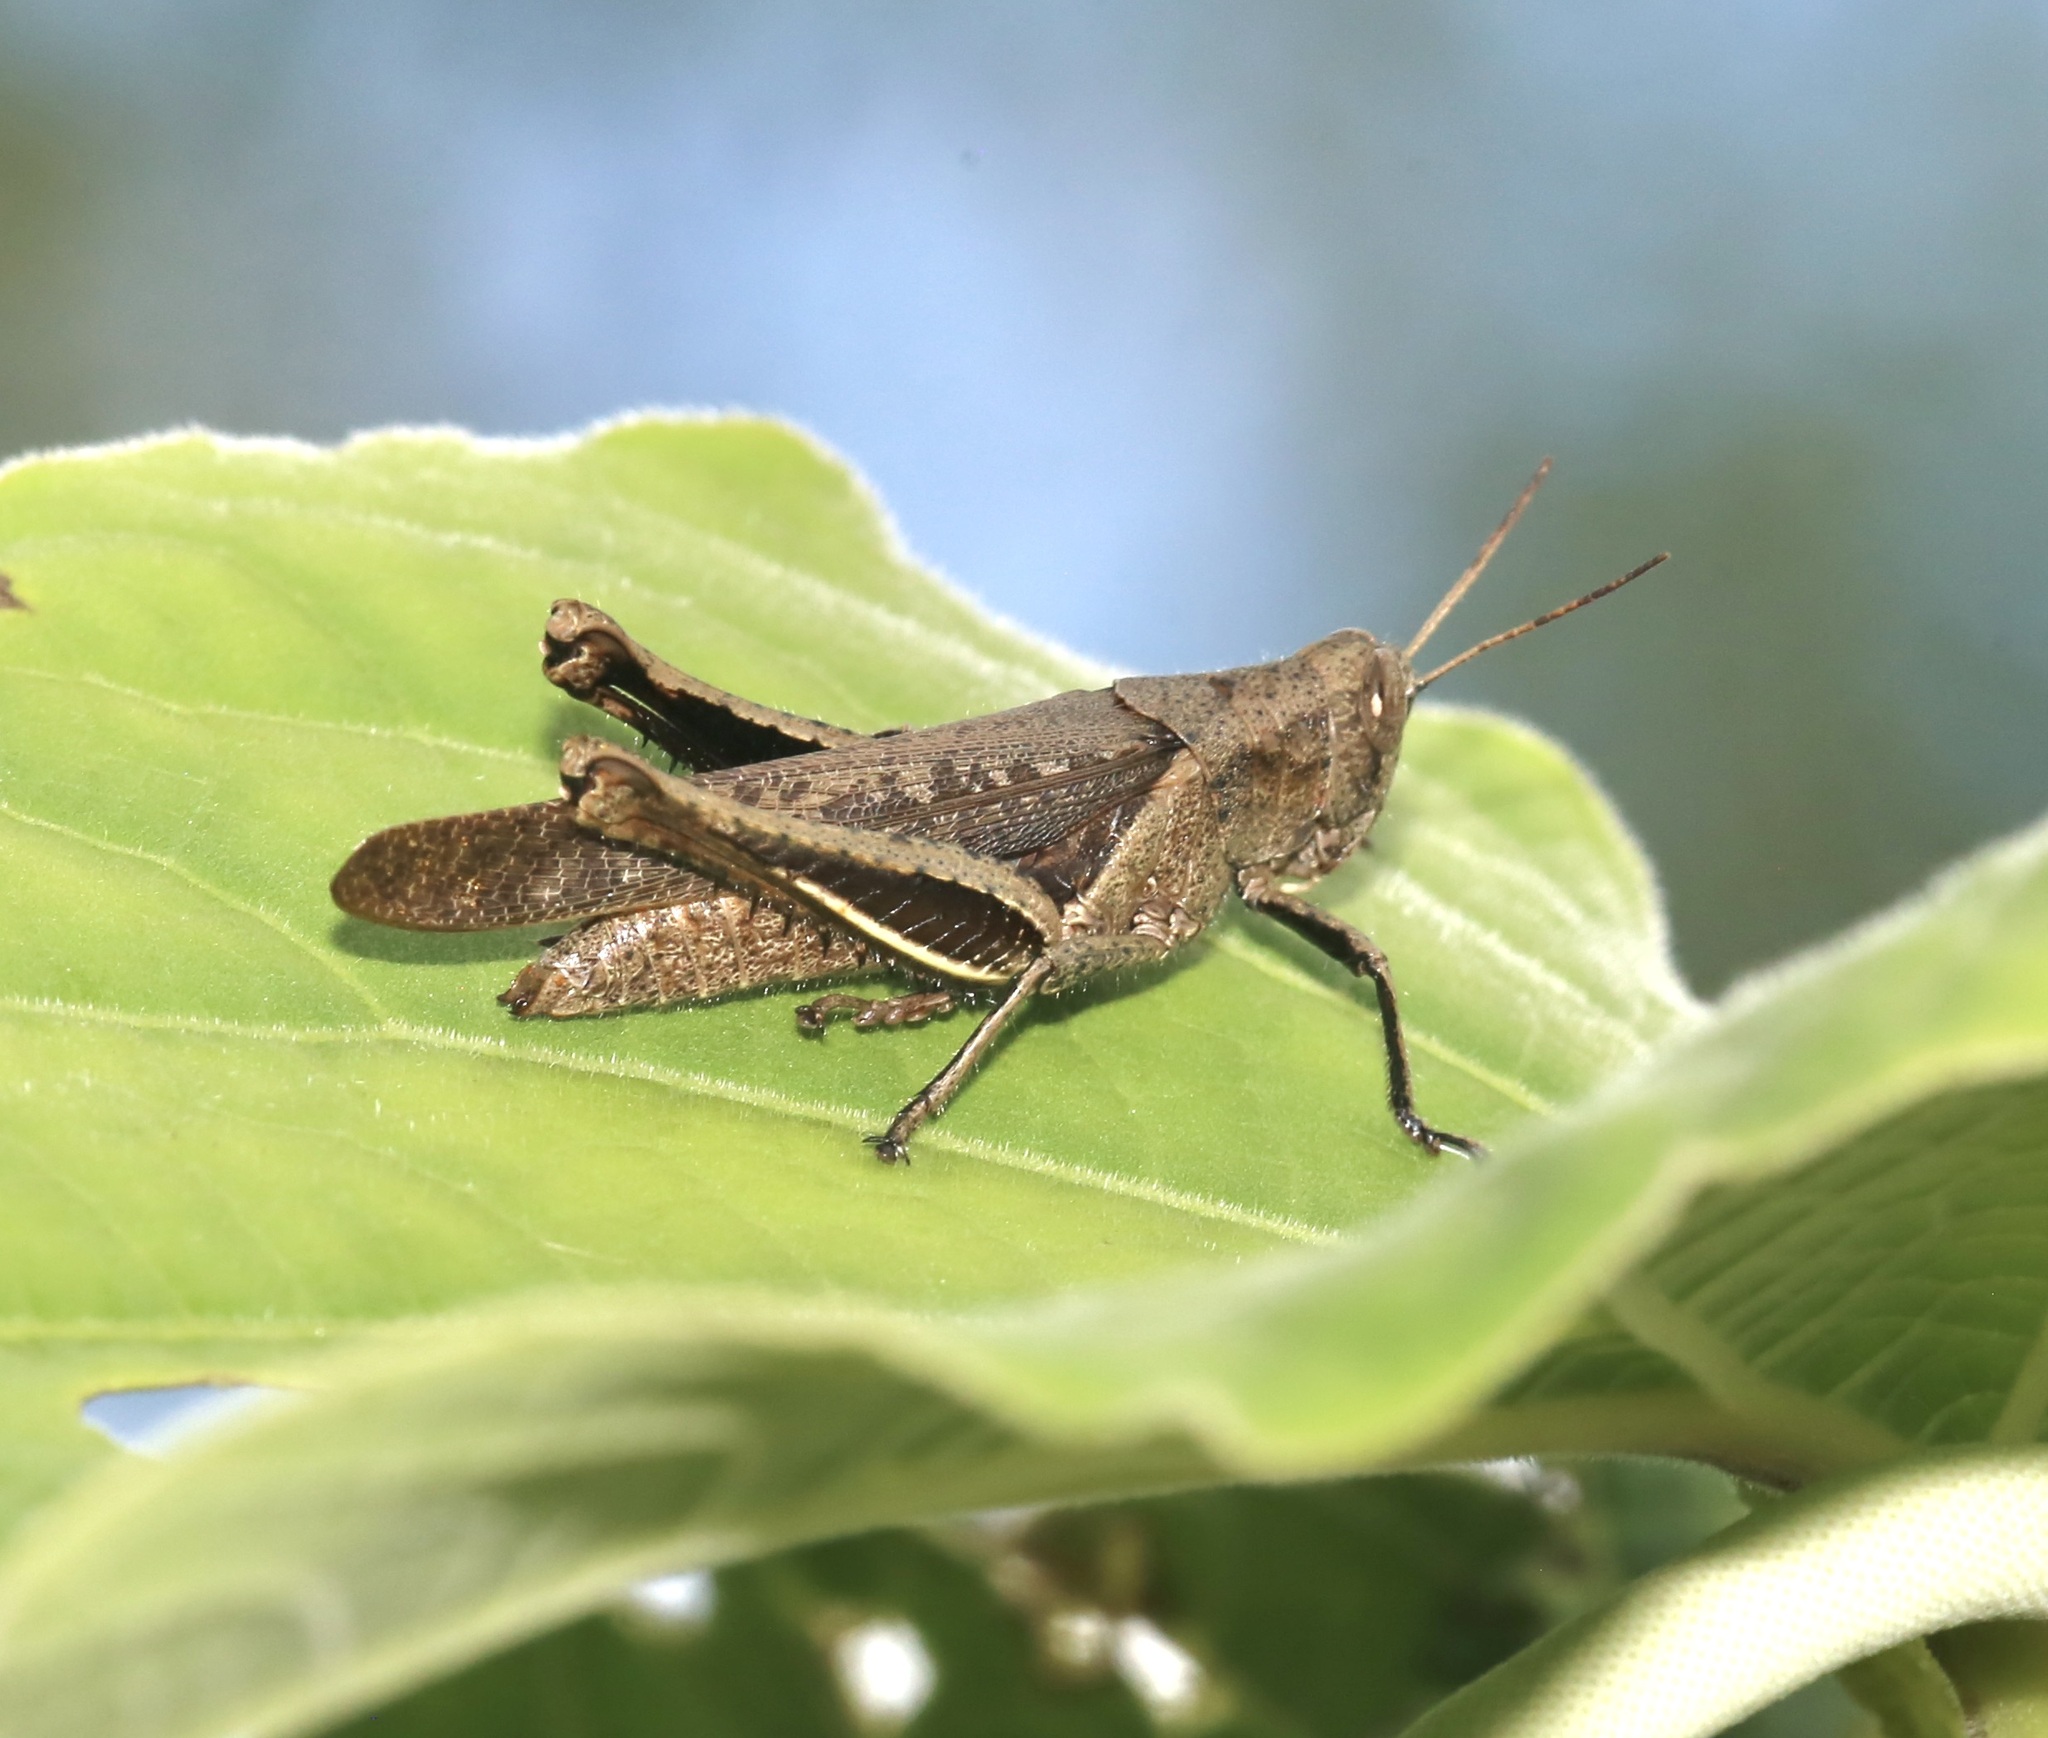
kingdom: Animalia
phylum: Arthropoda
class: Insecta
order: Orthoptera
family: Acrididae
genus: Abracris
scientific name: Abracris flavolineata
